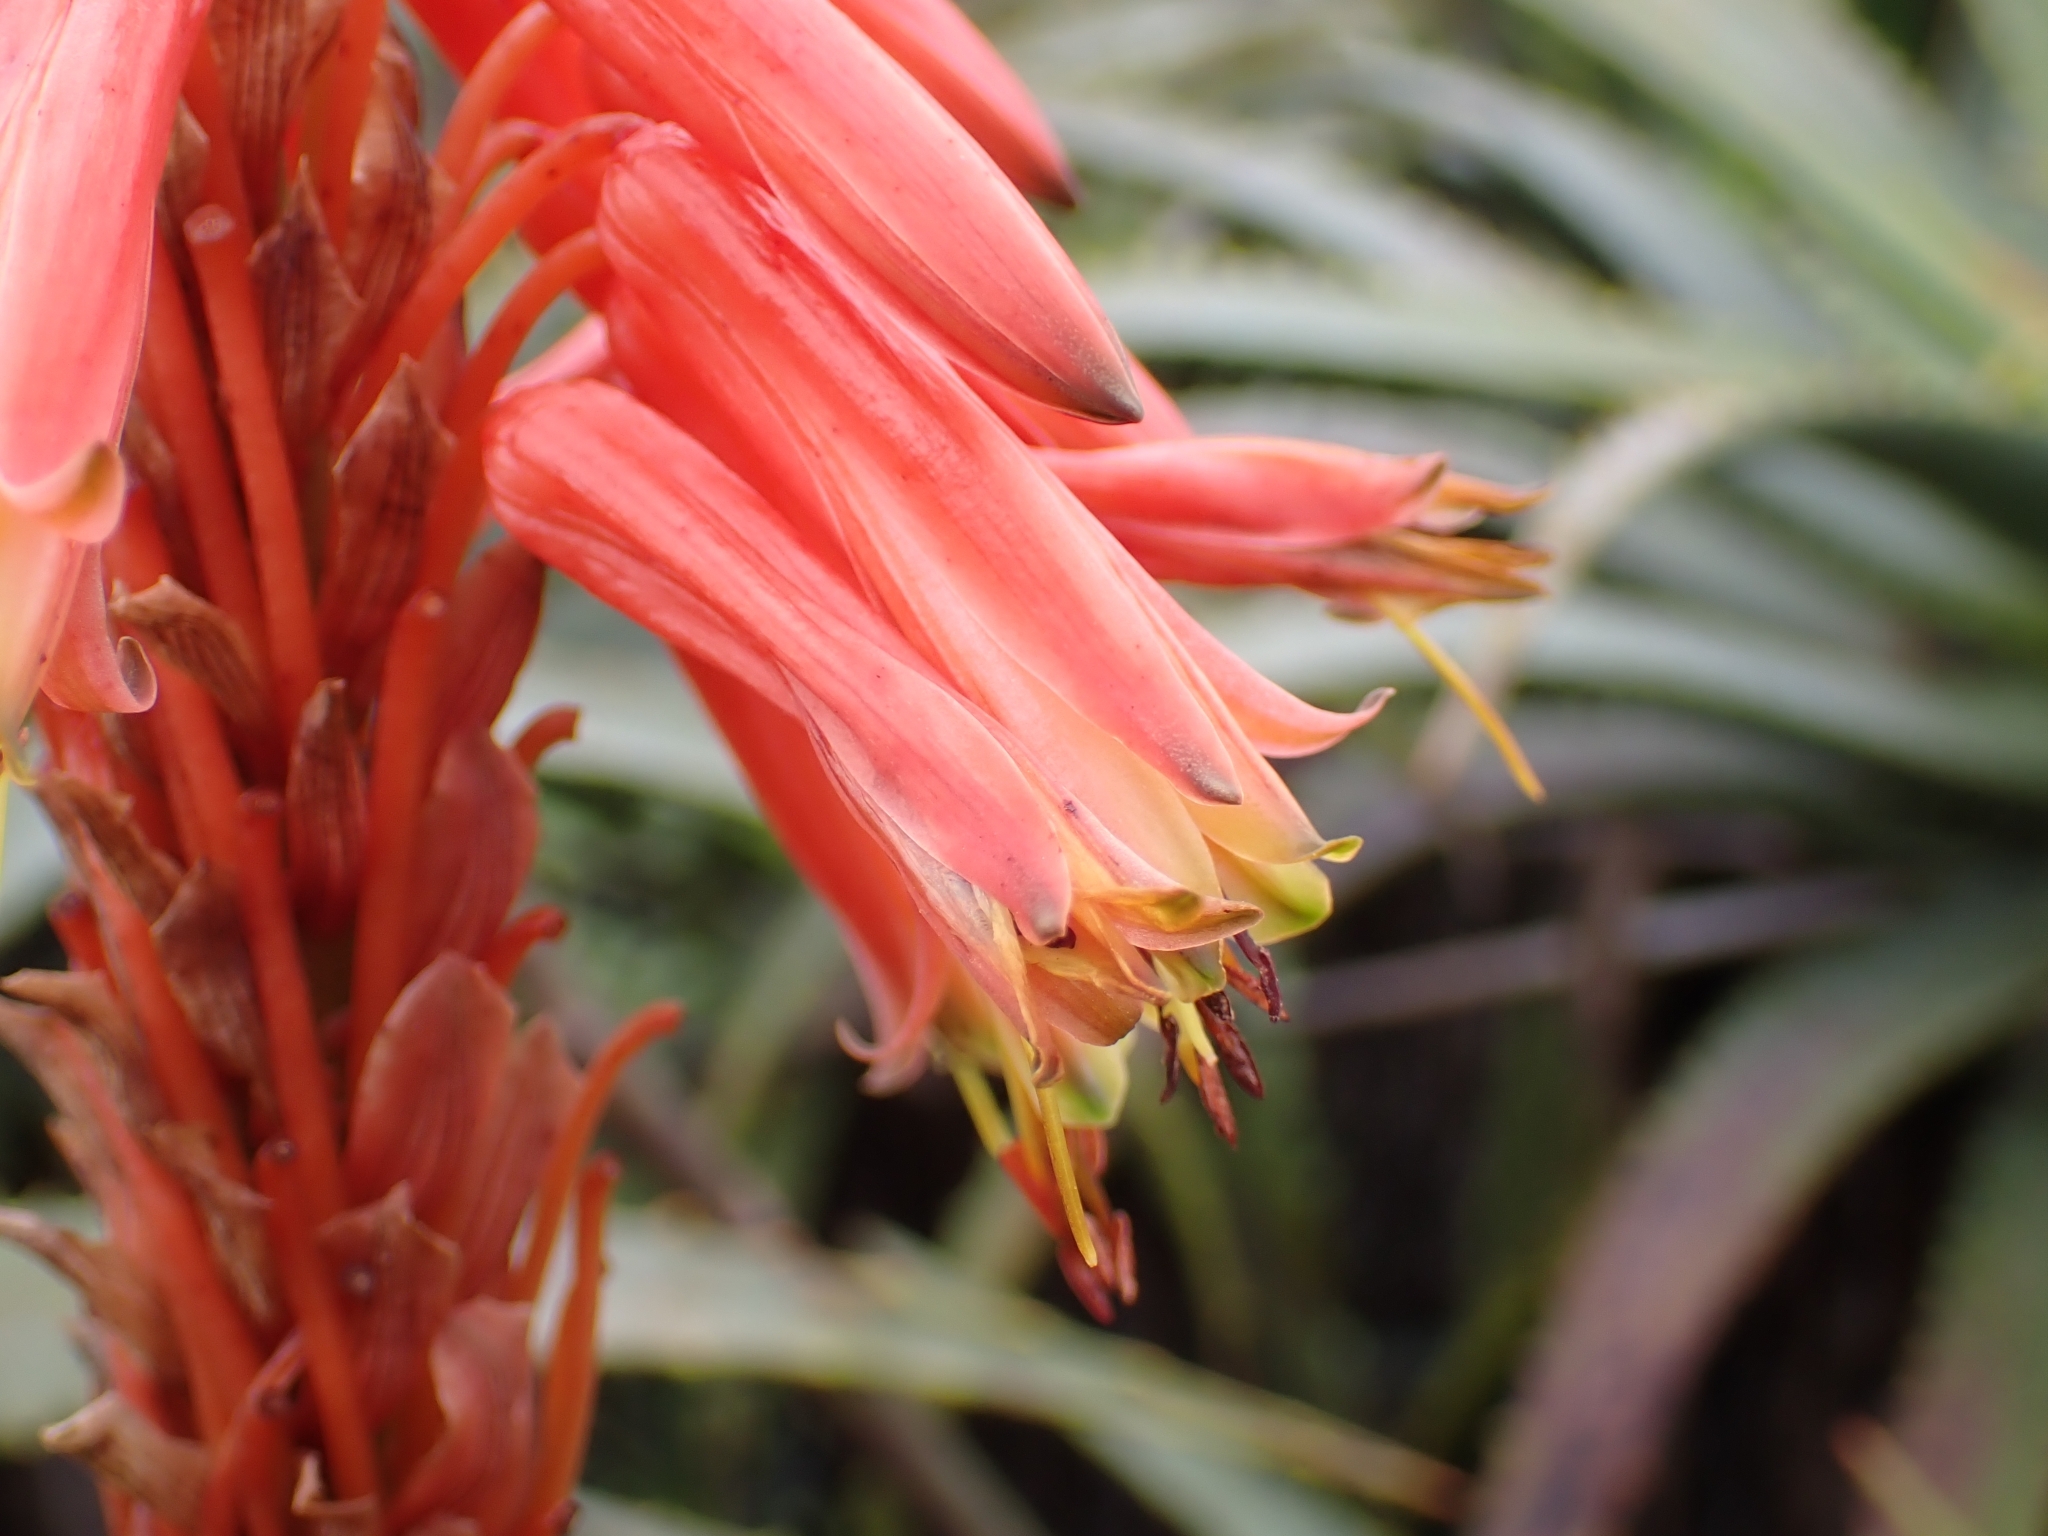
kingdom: Plantae
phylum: Tracheophyta
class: Liliopsida
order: Asparagales
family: Asphodelaceae
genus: Aloe
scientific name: Aloe arborescens
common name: Candelabra aloe
